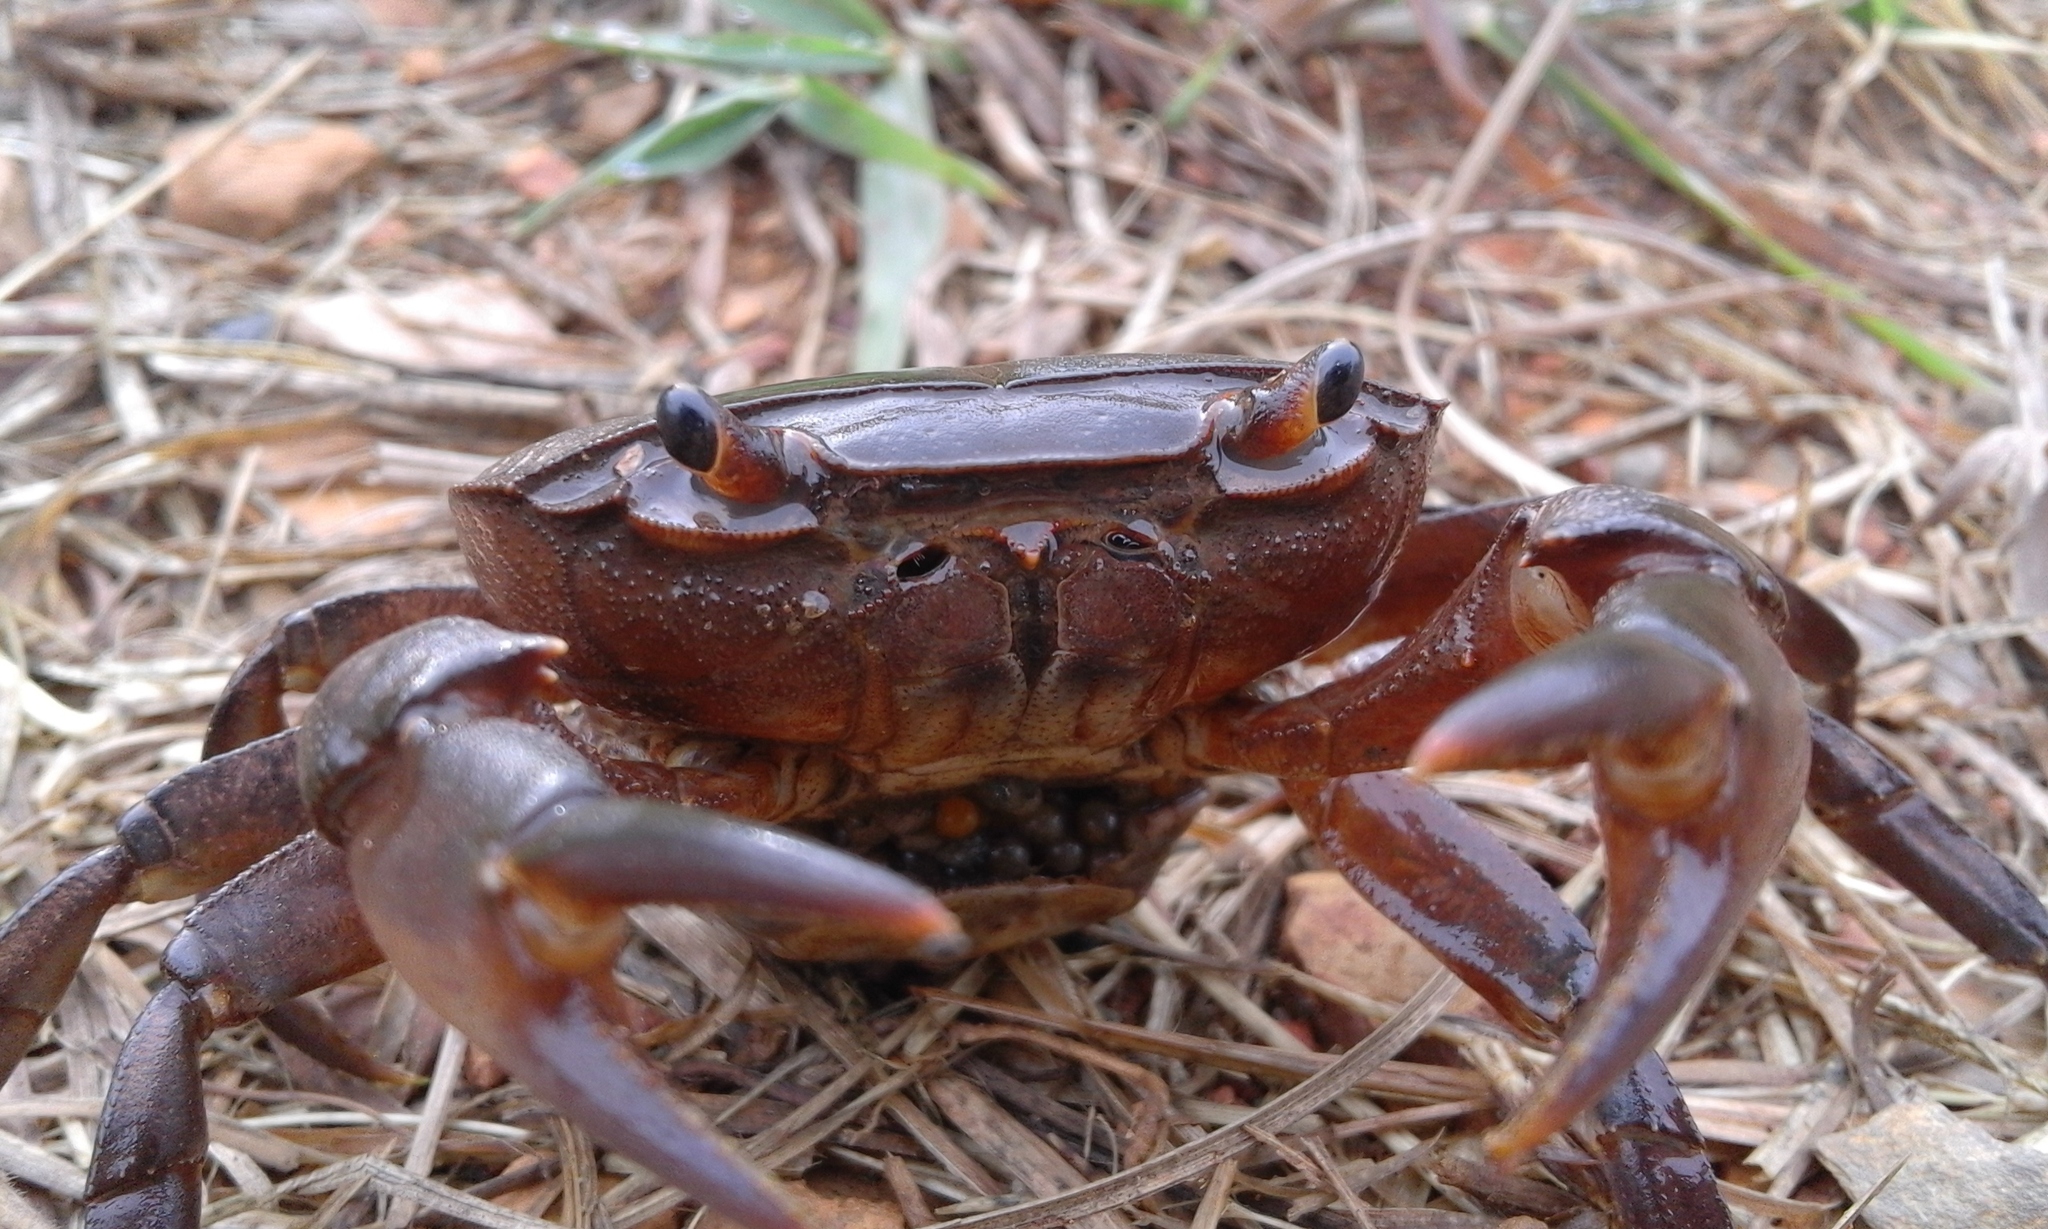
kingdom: Animalia
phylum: Arthropoda
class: Malacostraca
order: Decapoda
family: Potamonautidae
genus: Potamonautes
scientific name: Potamonautes sidneyi
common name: Natal river crab
